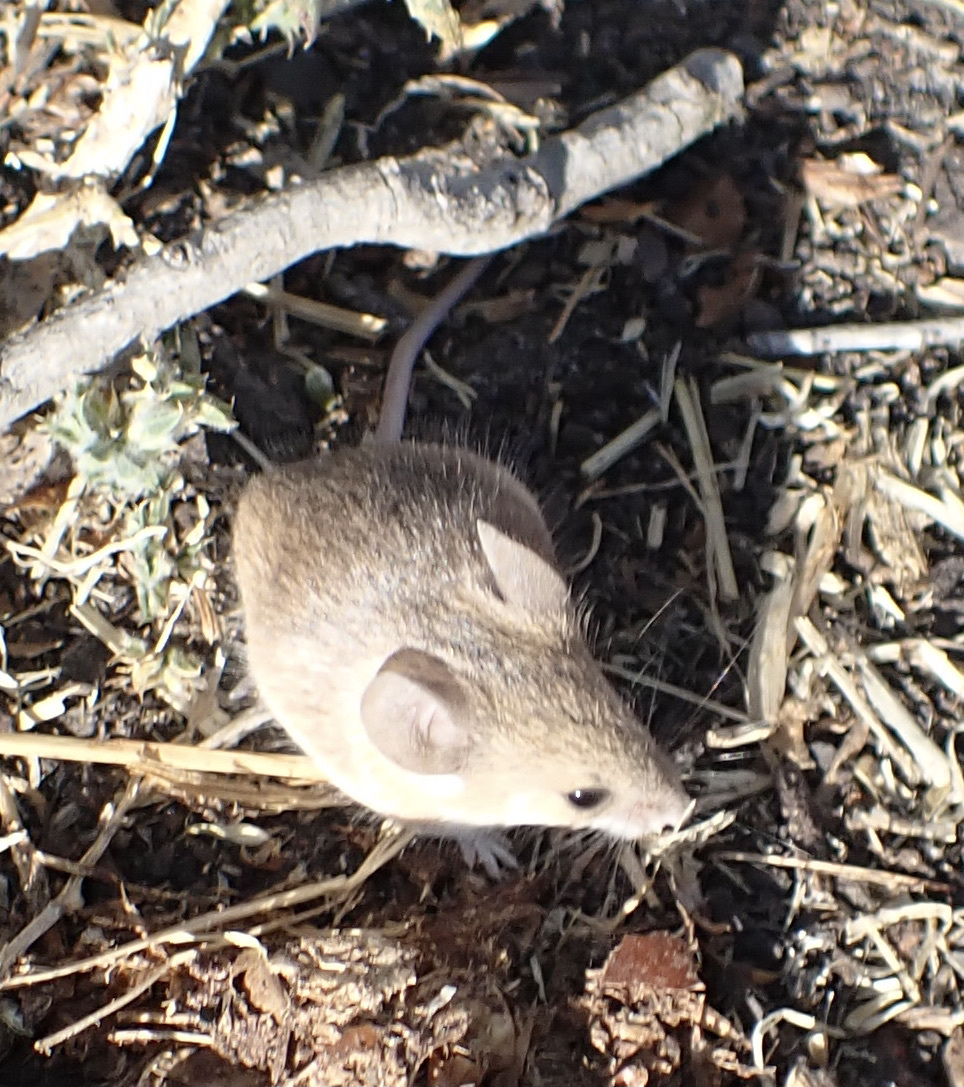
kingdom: Animalia
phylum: Chordata
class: Mammalia
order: Rodentia
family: Muridae
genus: Mus
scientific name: Mus indutus
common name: Desert pygmy mouse
